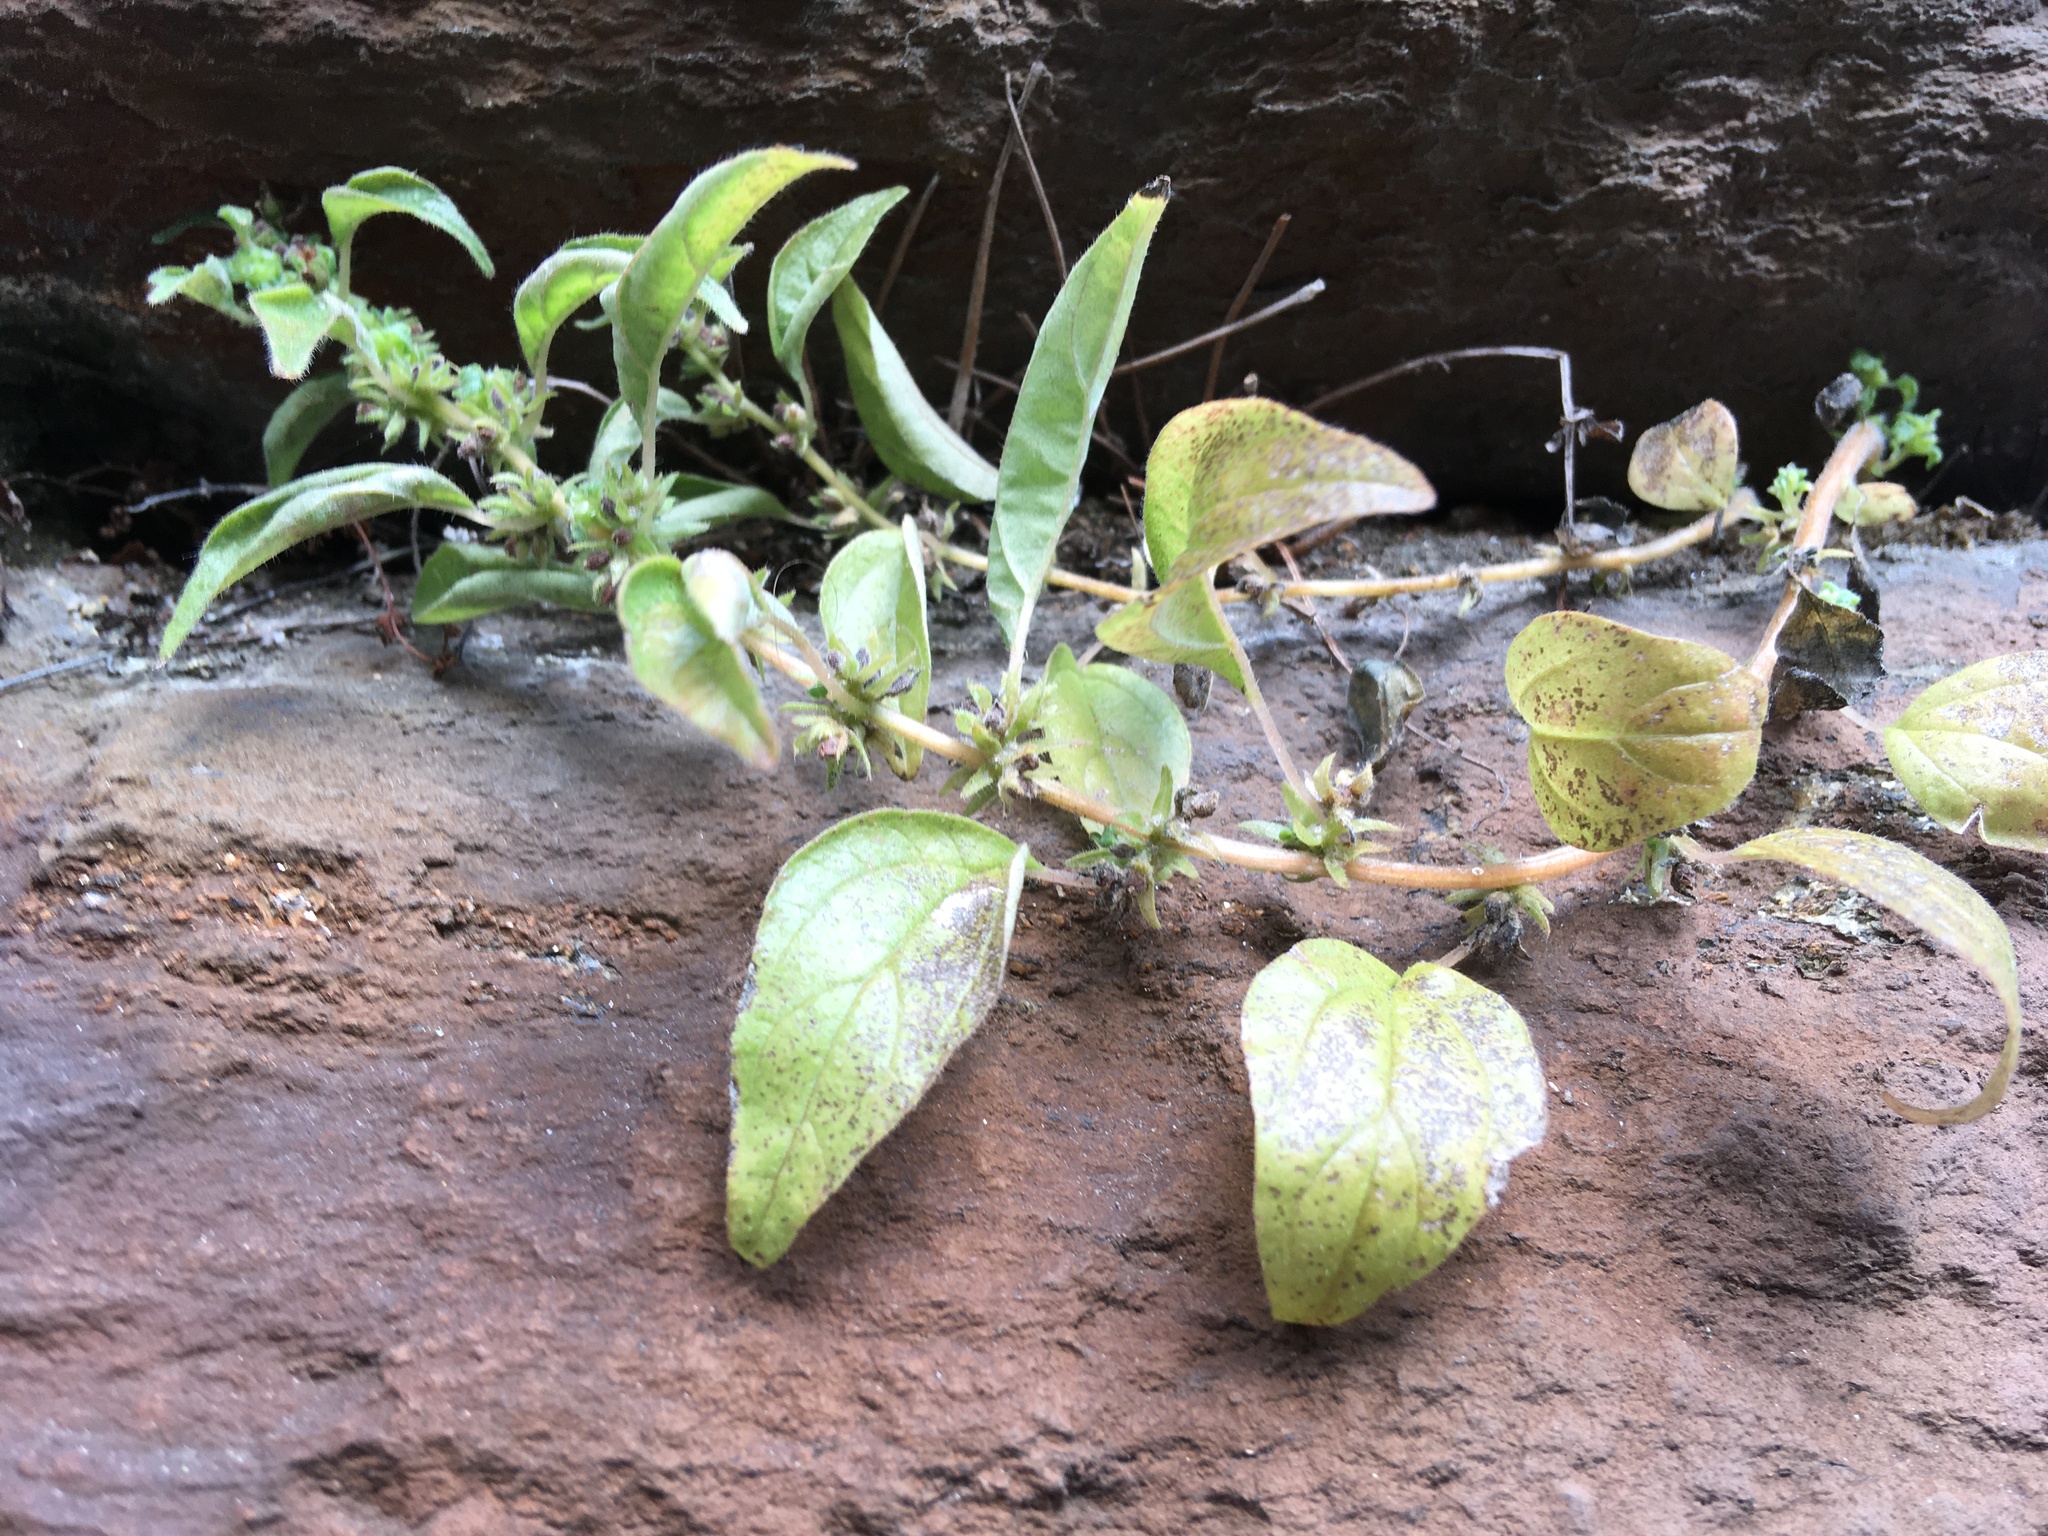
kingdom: Plantae
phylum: Tracheophyta
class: Magnoliopsida
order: Rosales
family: Urticaceae
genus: Parietaria
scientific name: Parietaria pensylvanica
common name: Pennsylvania pellitory
